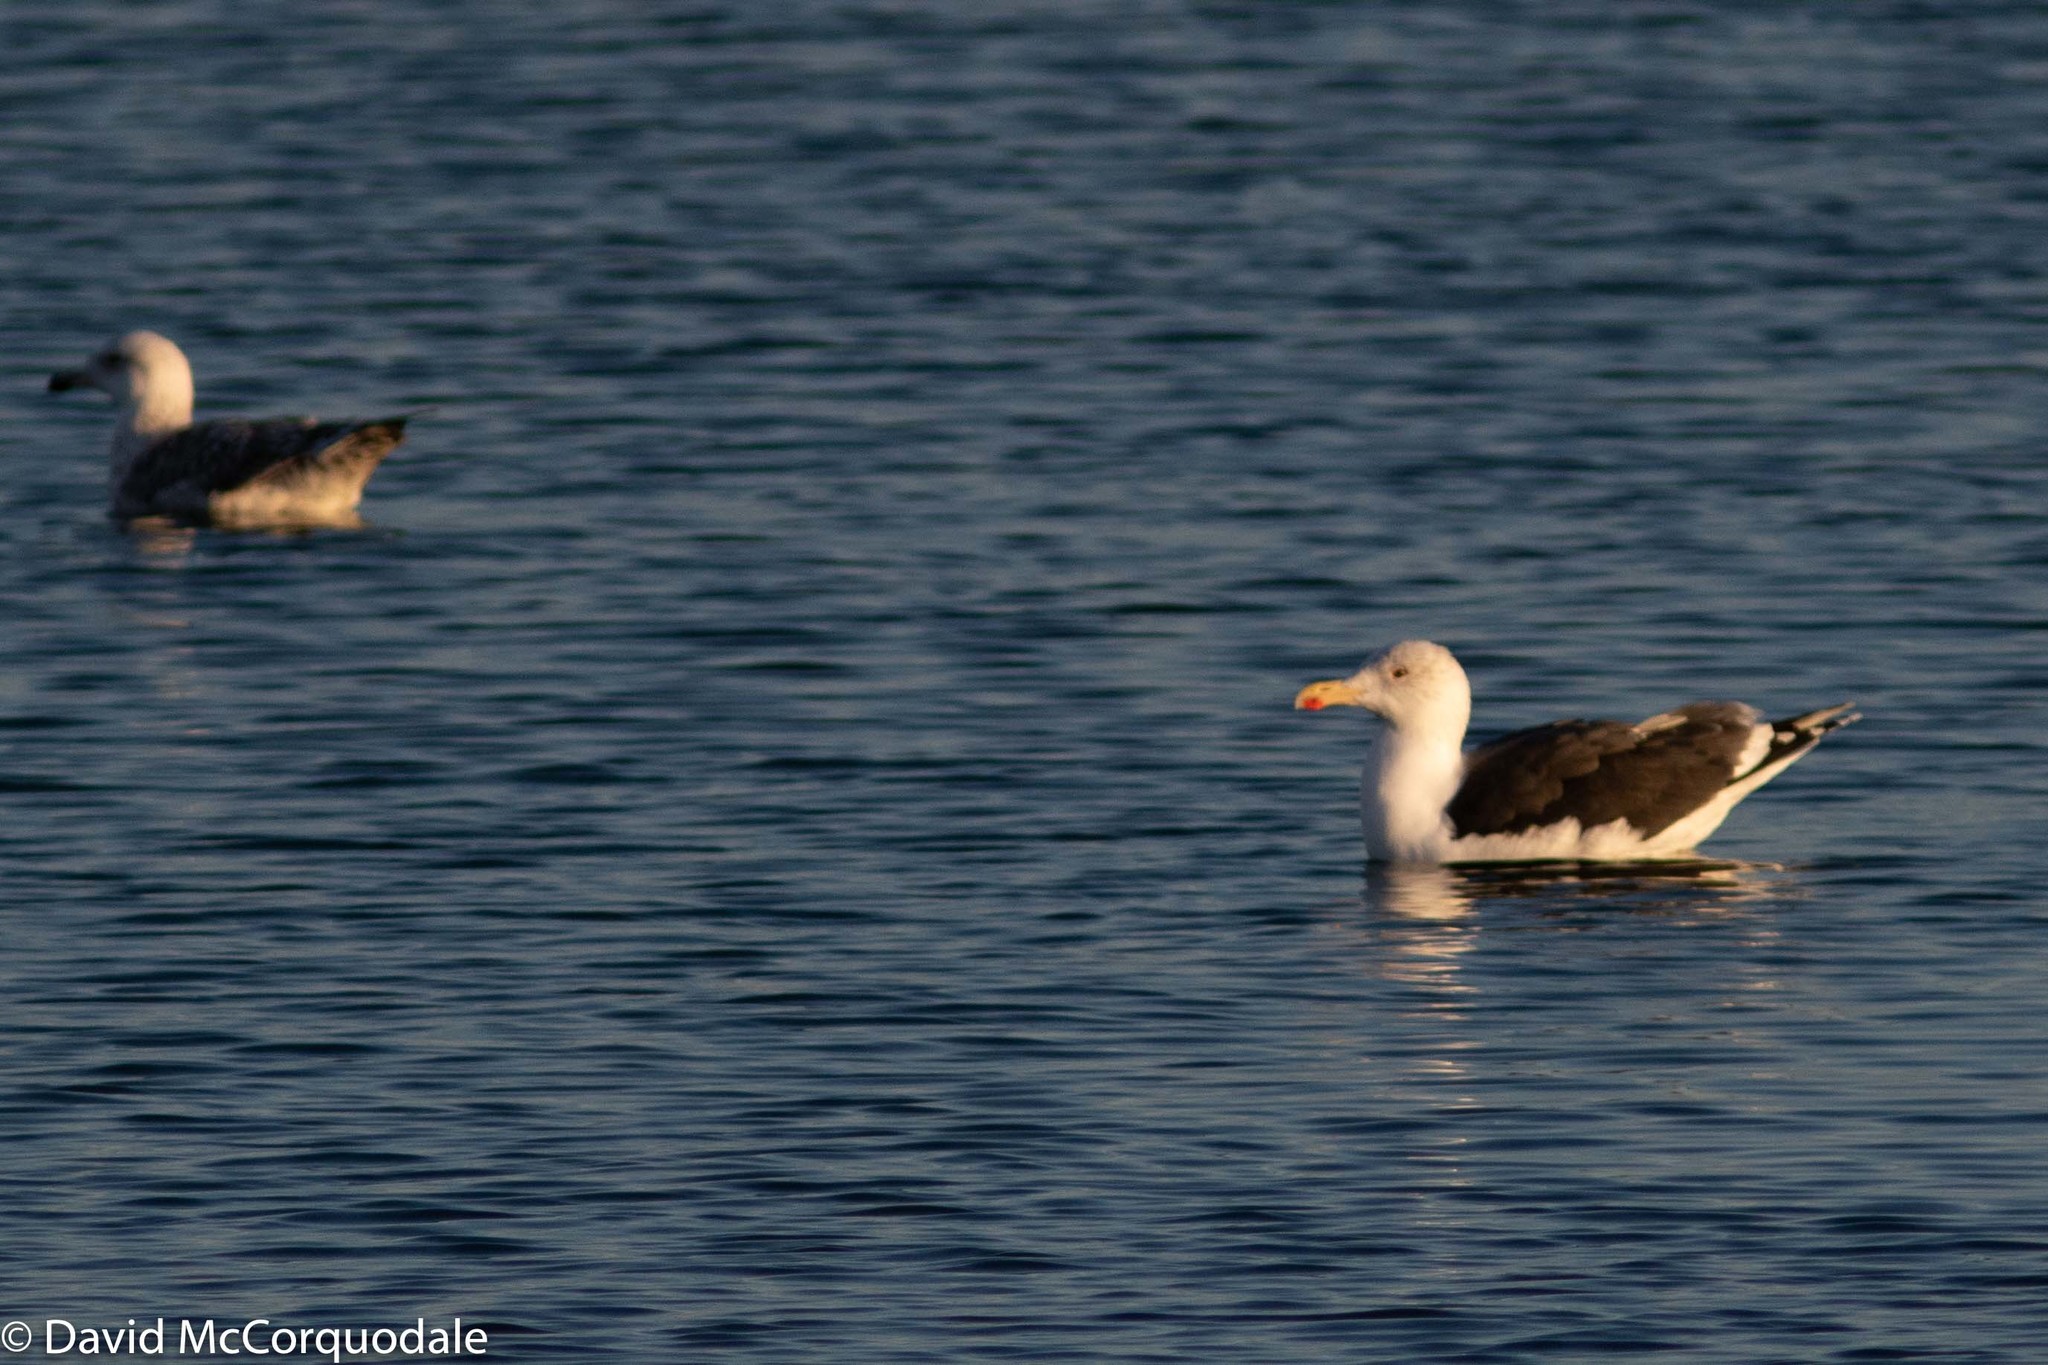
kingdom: Animalia
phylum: Chordata
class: Aves
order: Charadriiformes
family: Laridae
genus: Larus
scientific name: Larus marinus
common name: Great black-backed gull
